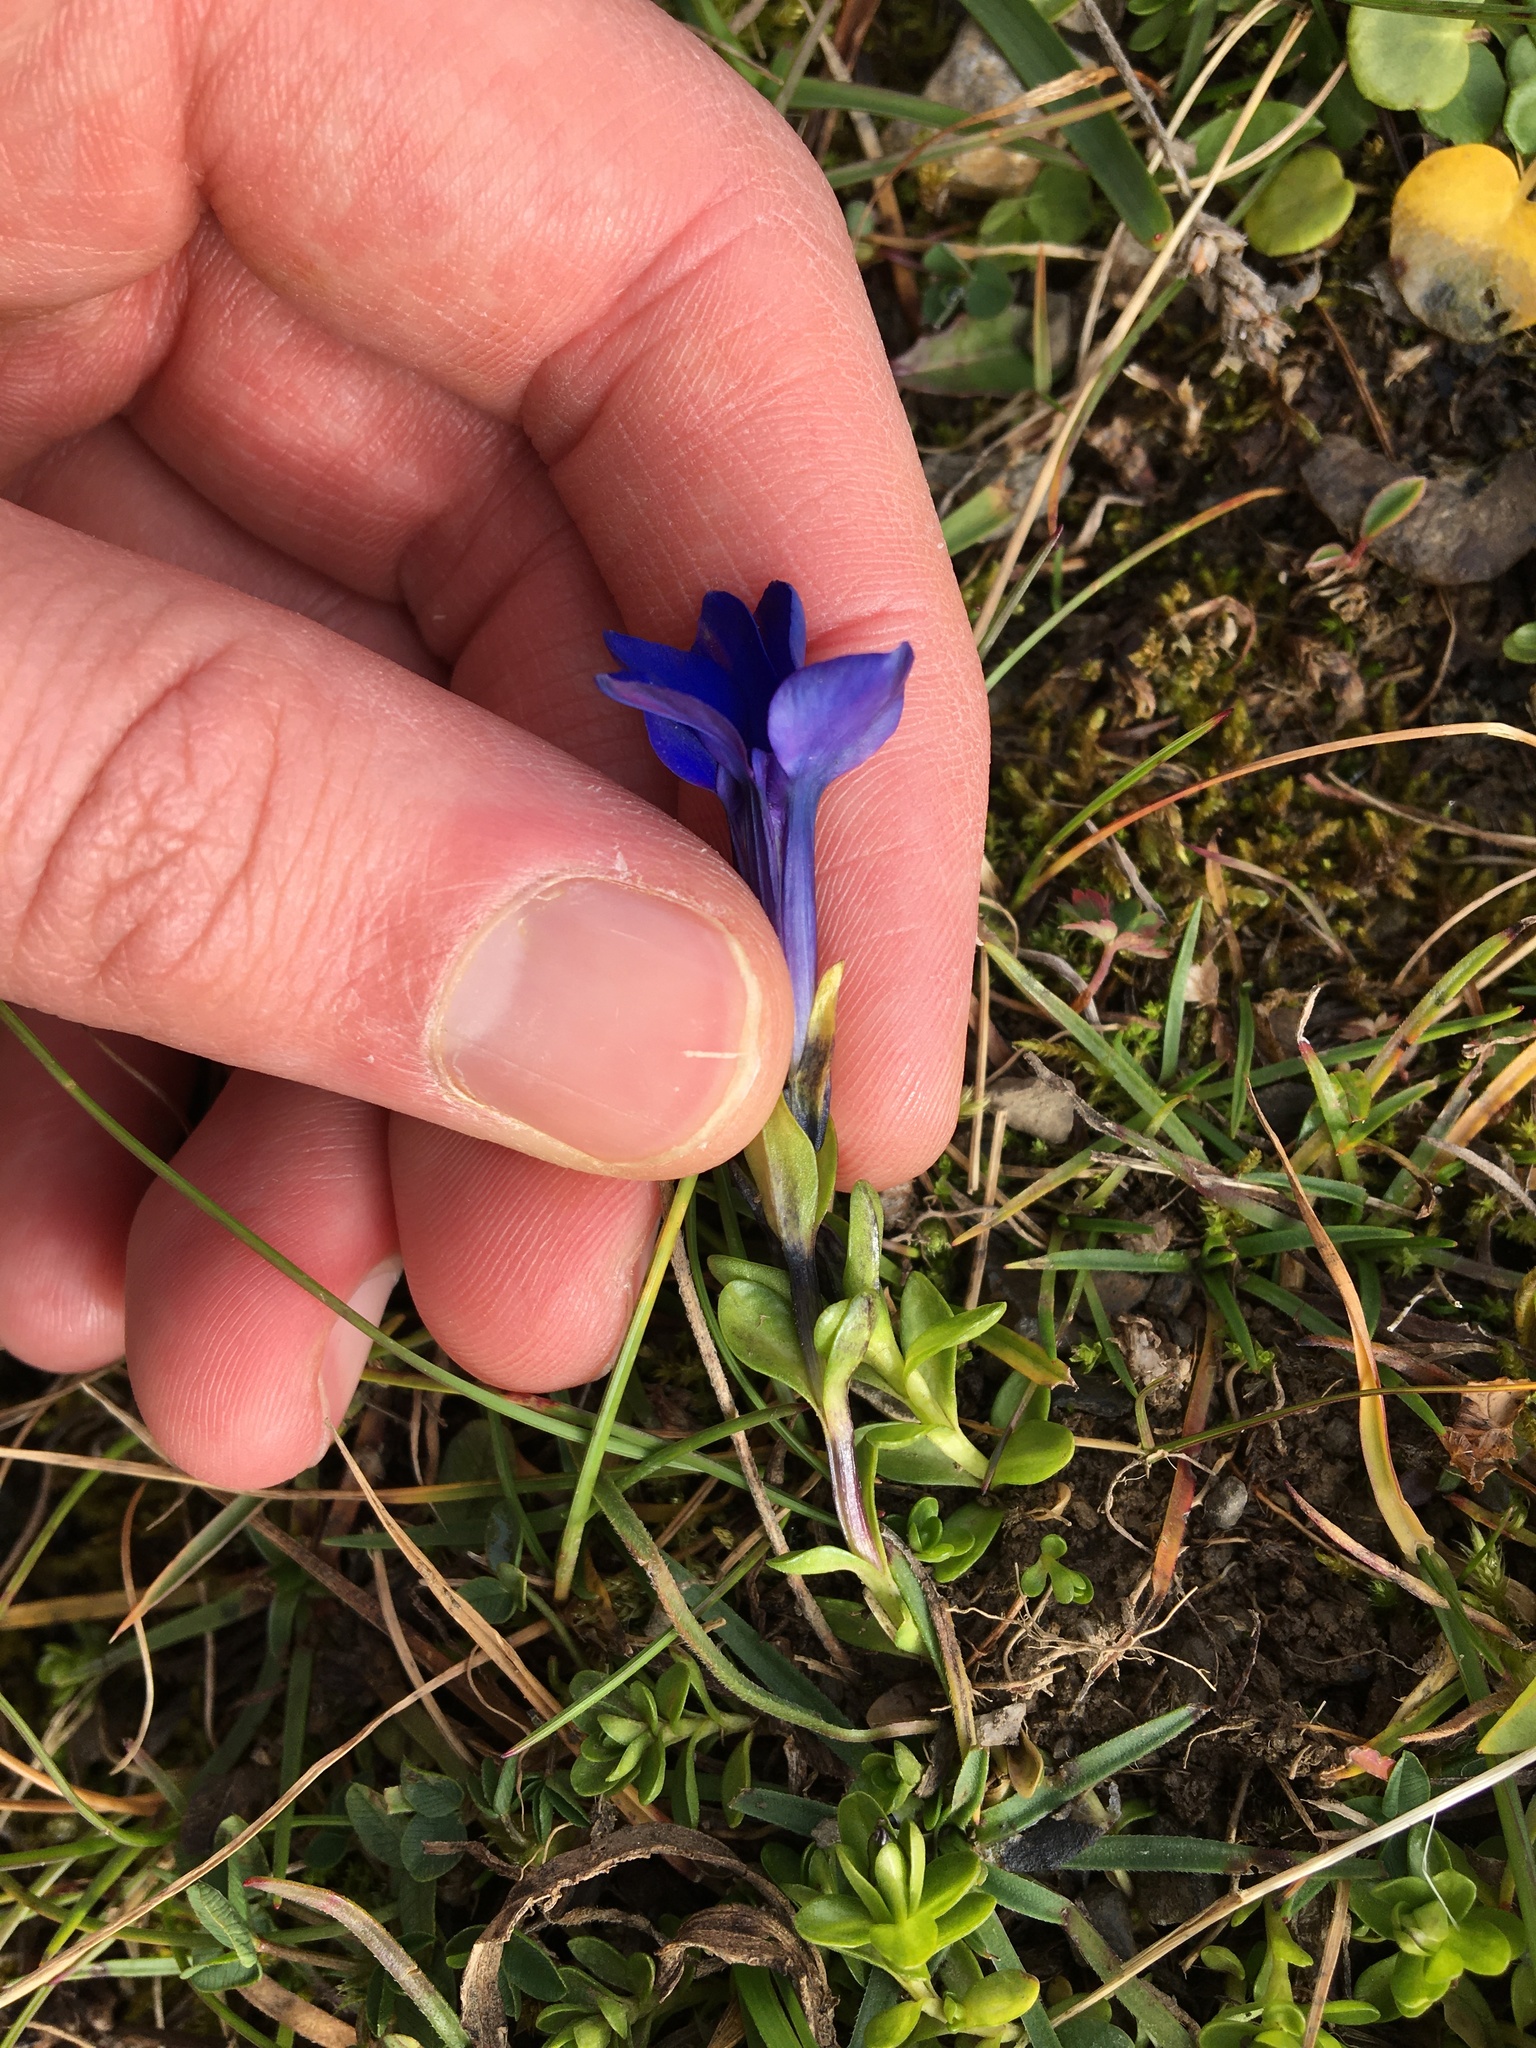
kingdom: Plantae
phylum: Tracheophyta
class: Magnoliopsida
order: Gentianales
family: Gentianaceae
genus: Gentiana
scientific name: Gentiana bavarica
